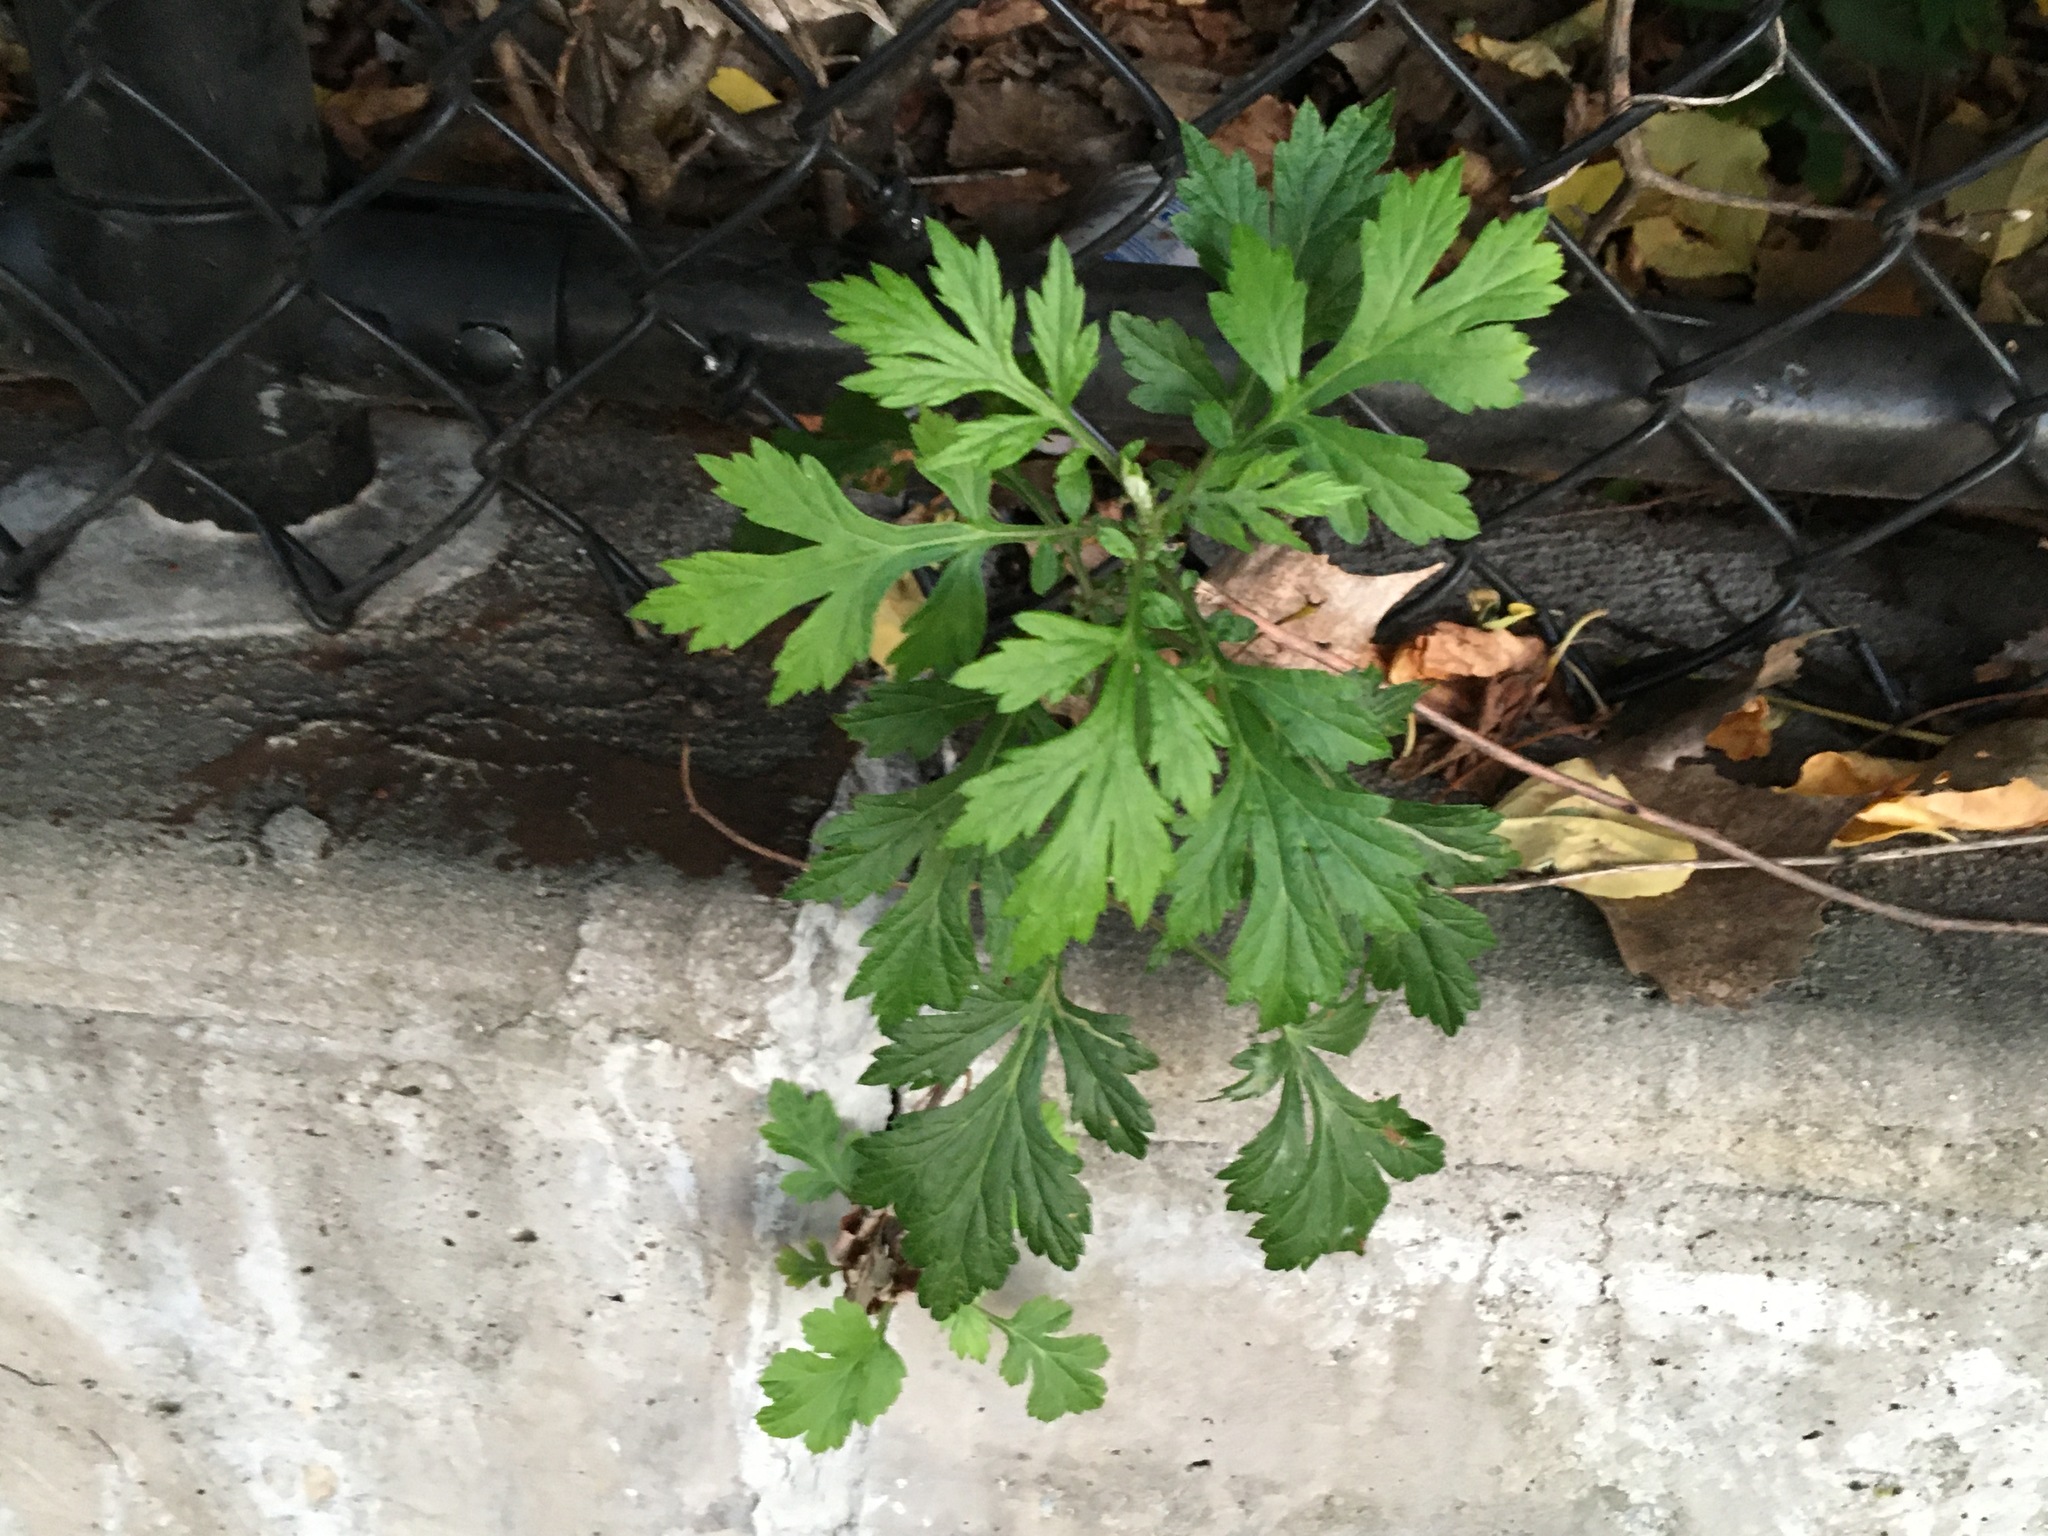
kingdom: Plantae
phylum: Tracheophyta
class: Magnoliopsida
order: Asterales
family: Asteraceae
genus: Artemisia
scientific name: Artemisia vulgaris
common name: Mugwort
